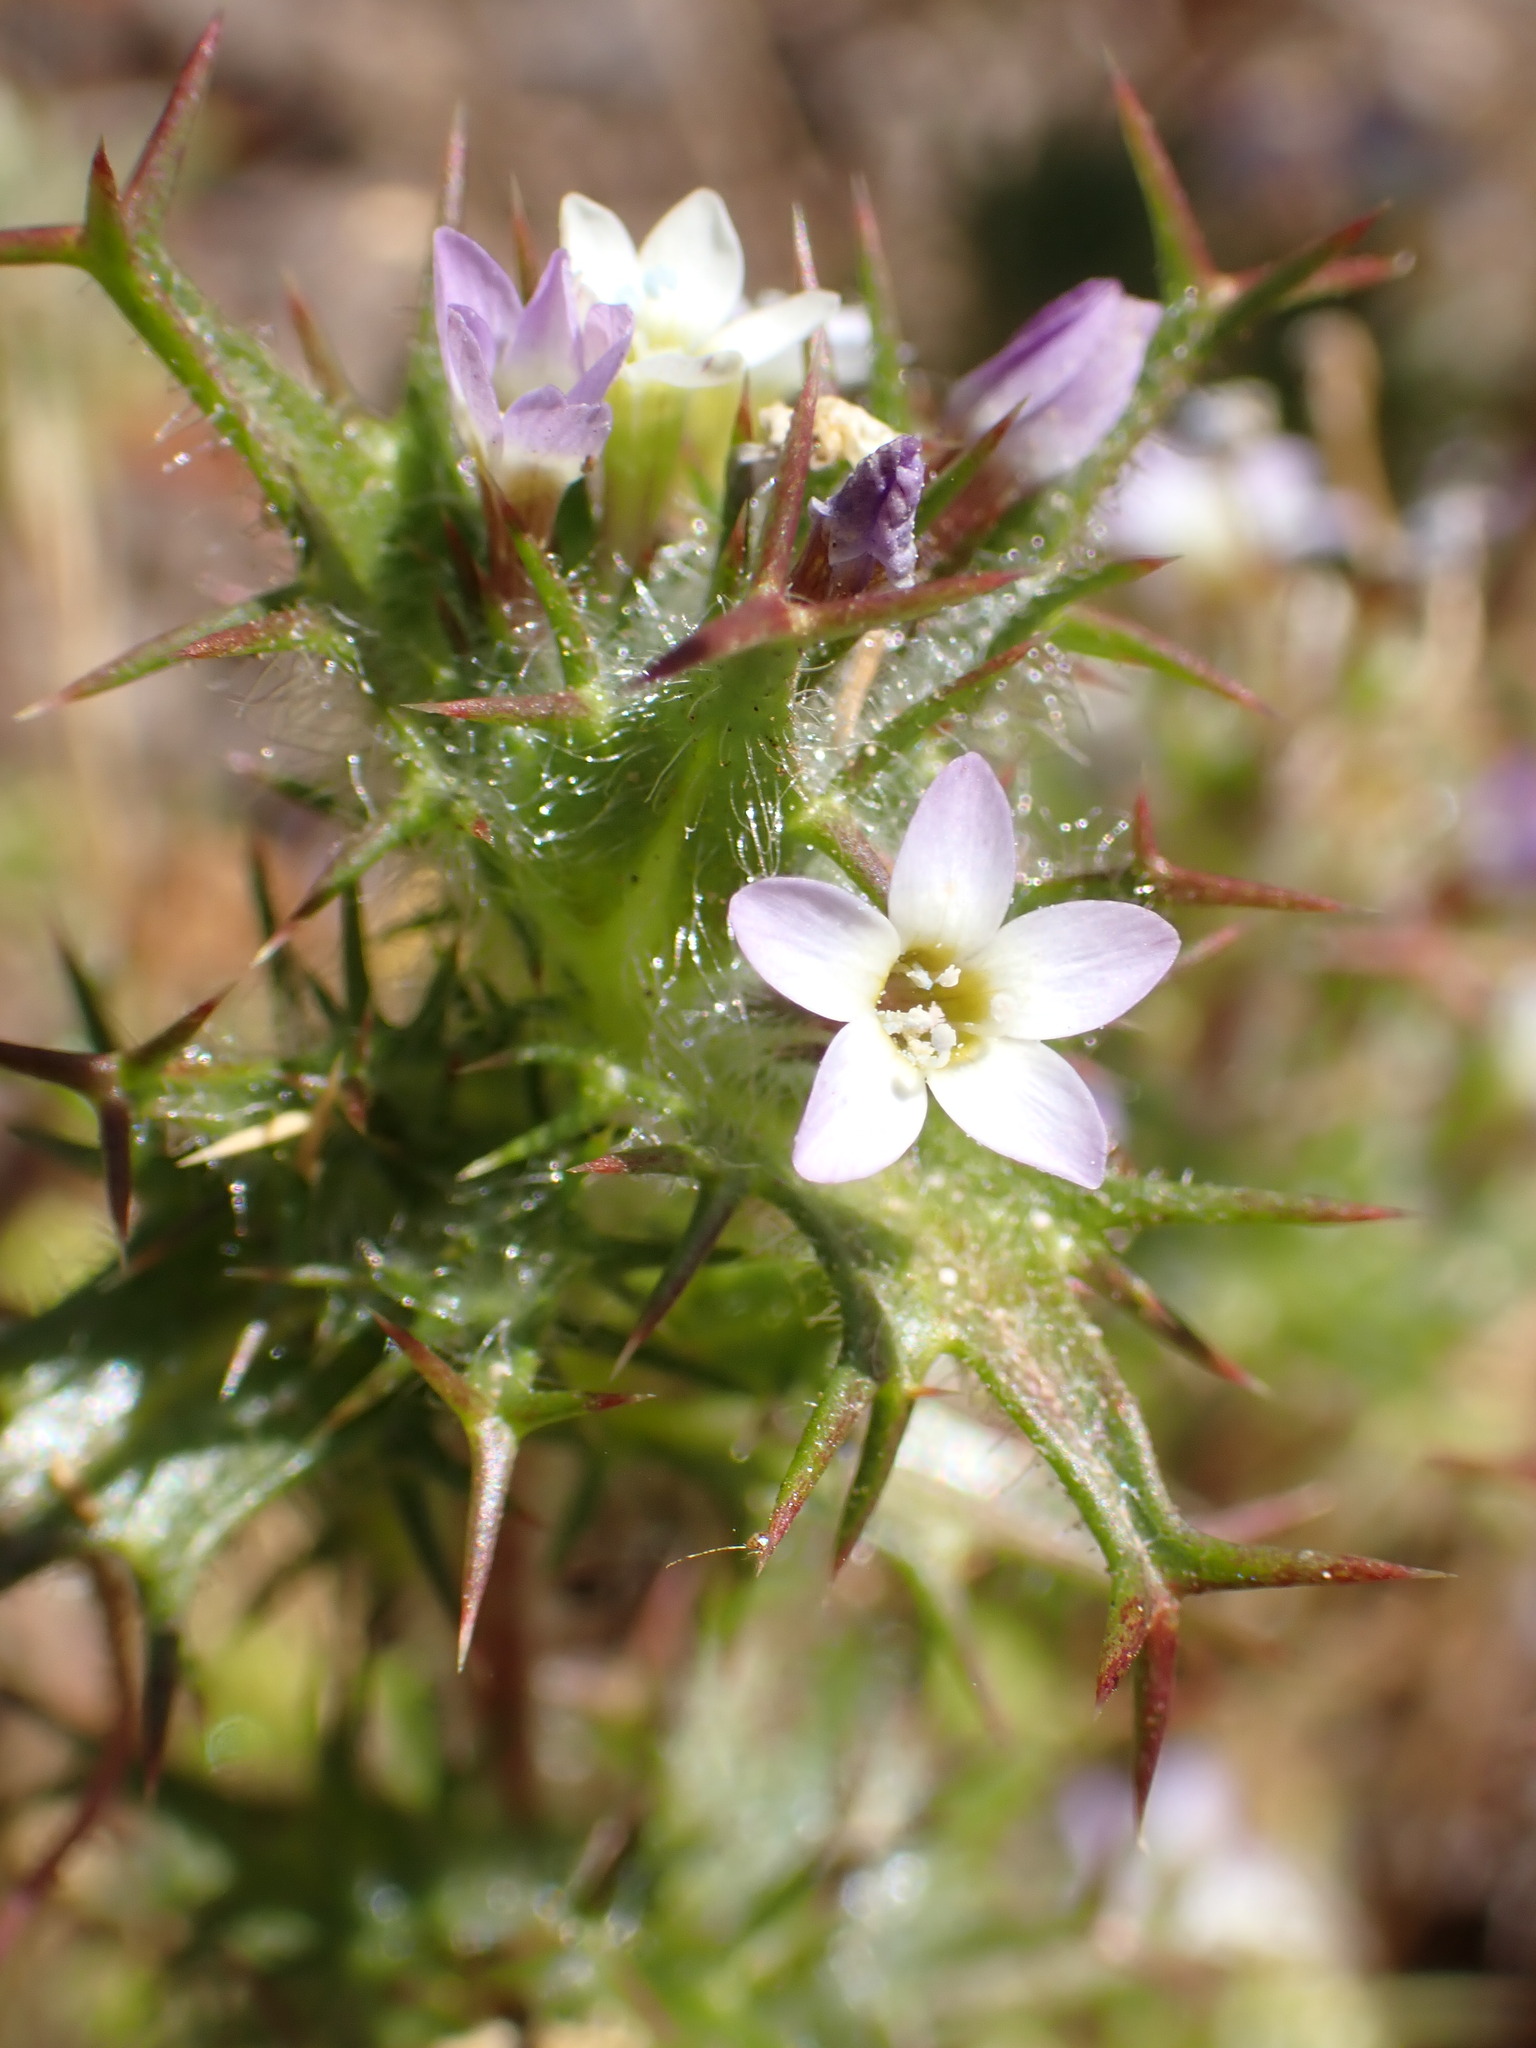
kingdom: Plantae
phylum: Tracheophyta
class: Magnoliopsida
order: Ericales
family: Polemoniaceae
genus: Navarretia
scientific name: Navarretia hamata
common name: Hooked navarretia
